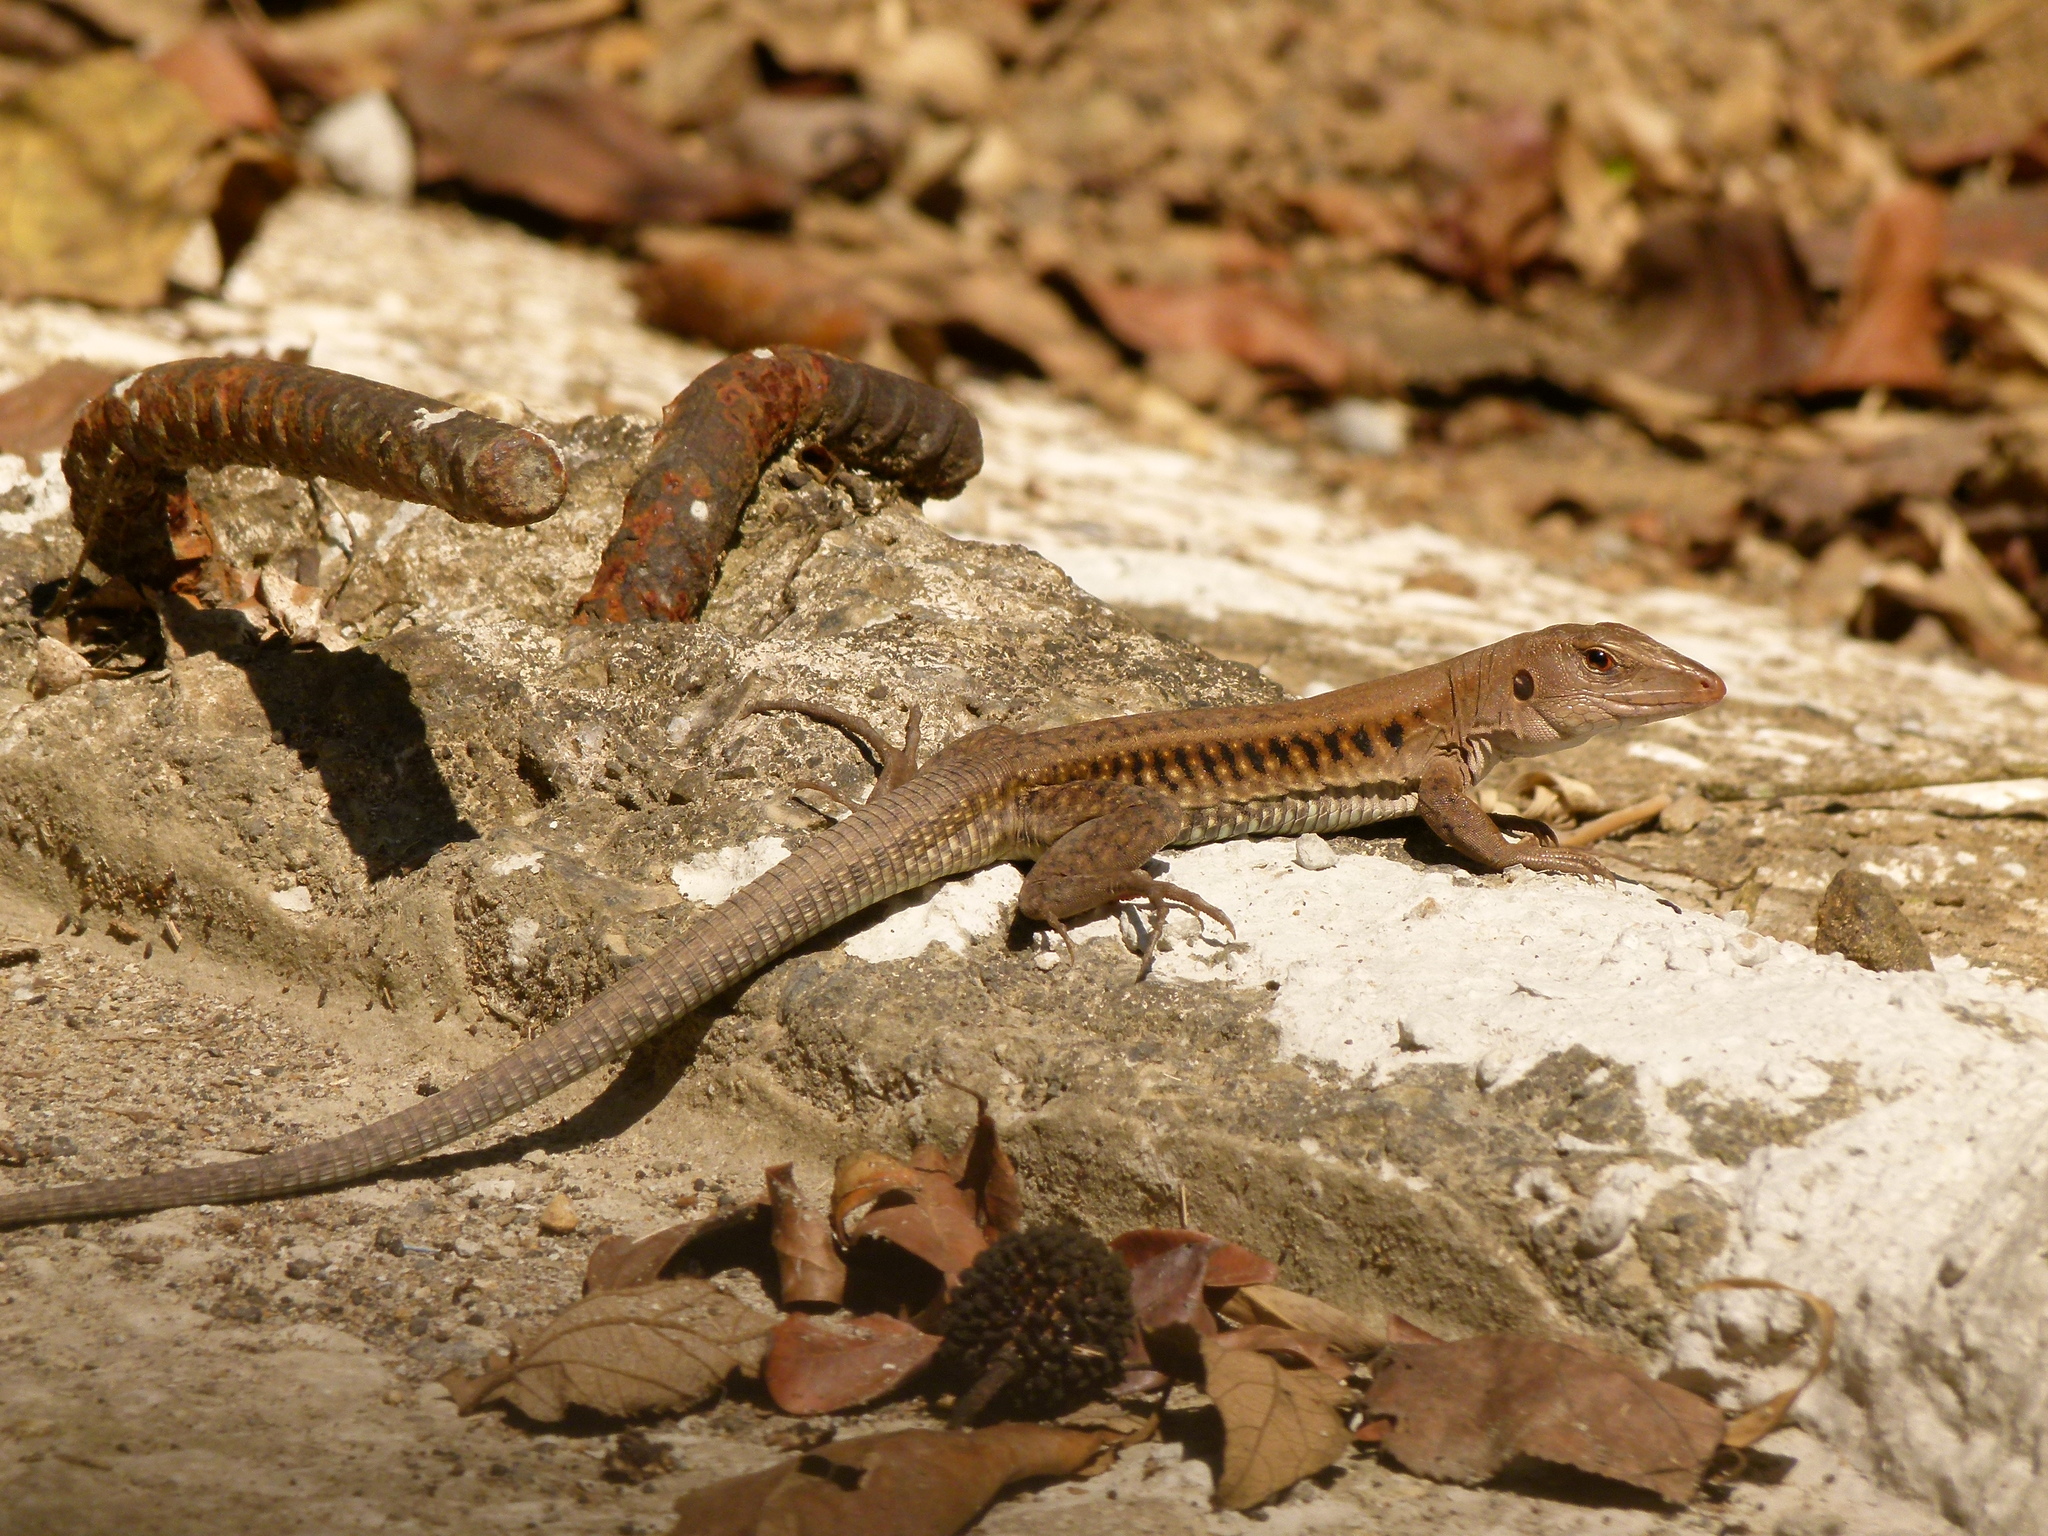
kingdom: Animalia
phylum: Chordata
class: Squamata
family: Teiidae
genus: Pholidoscelis
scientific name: Pholidoscelis exsul
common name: Common puerto rican ameiva
